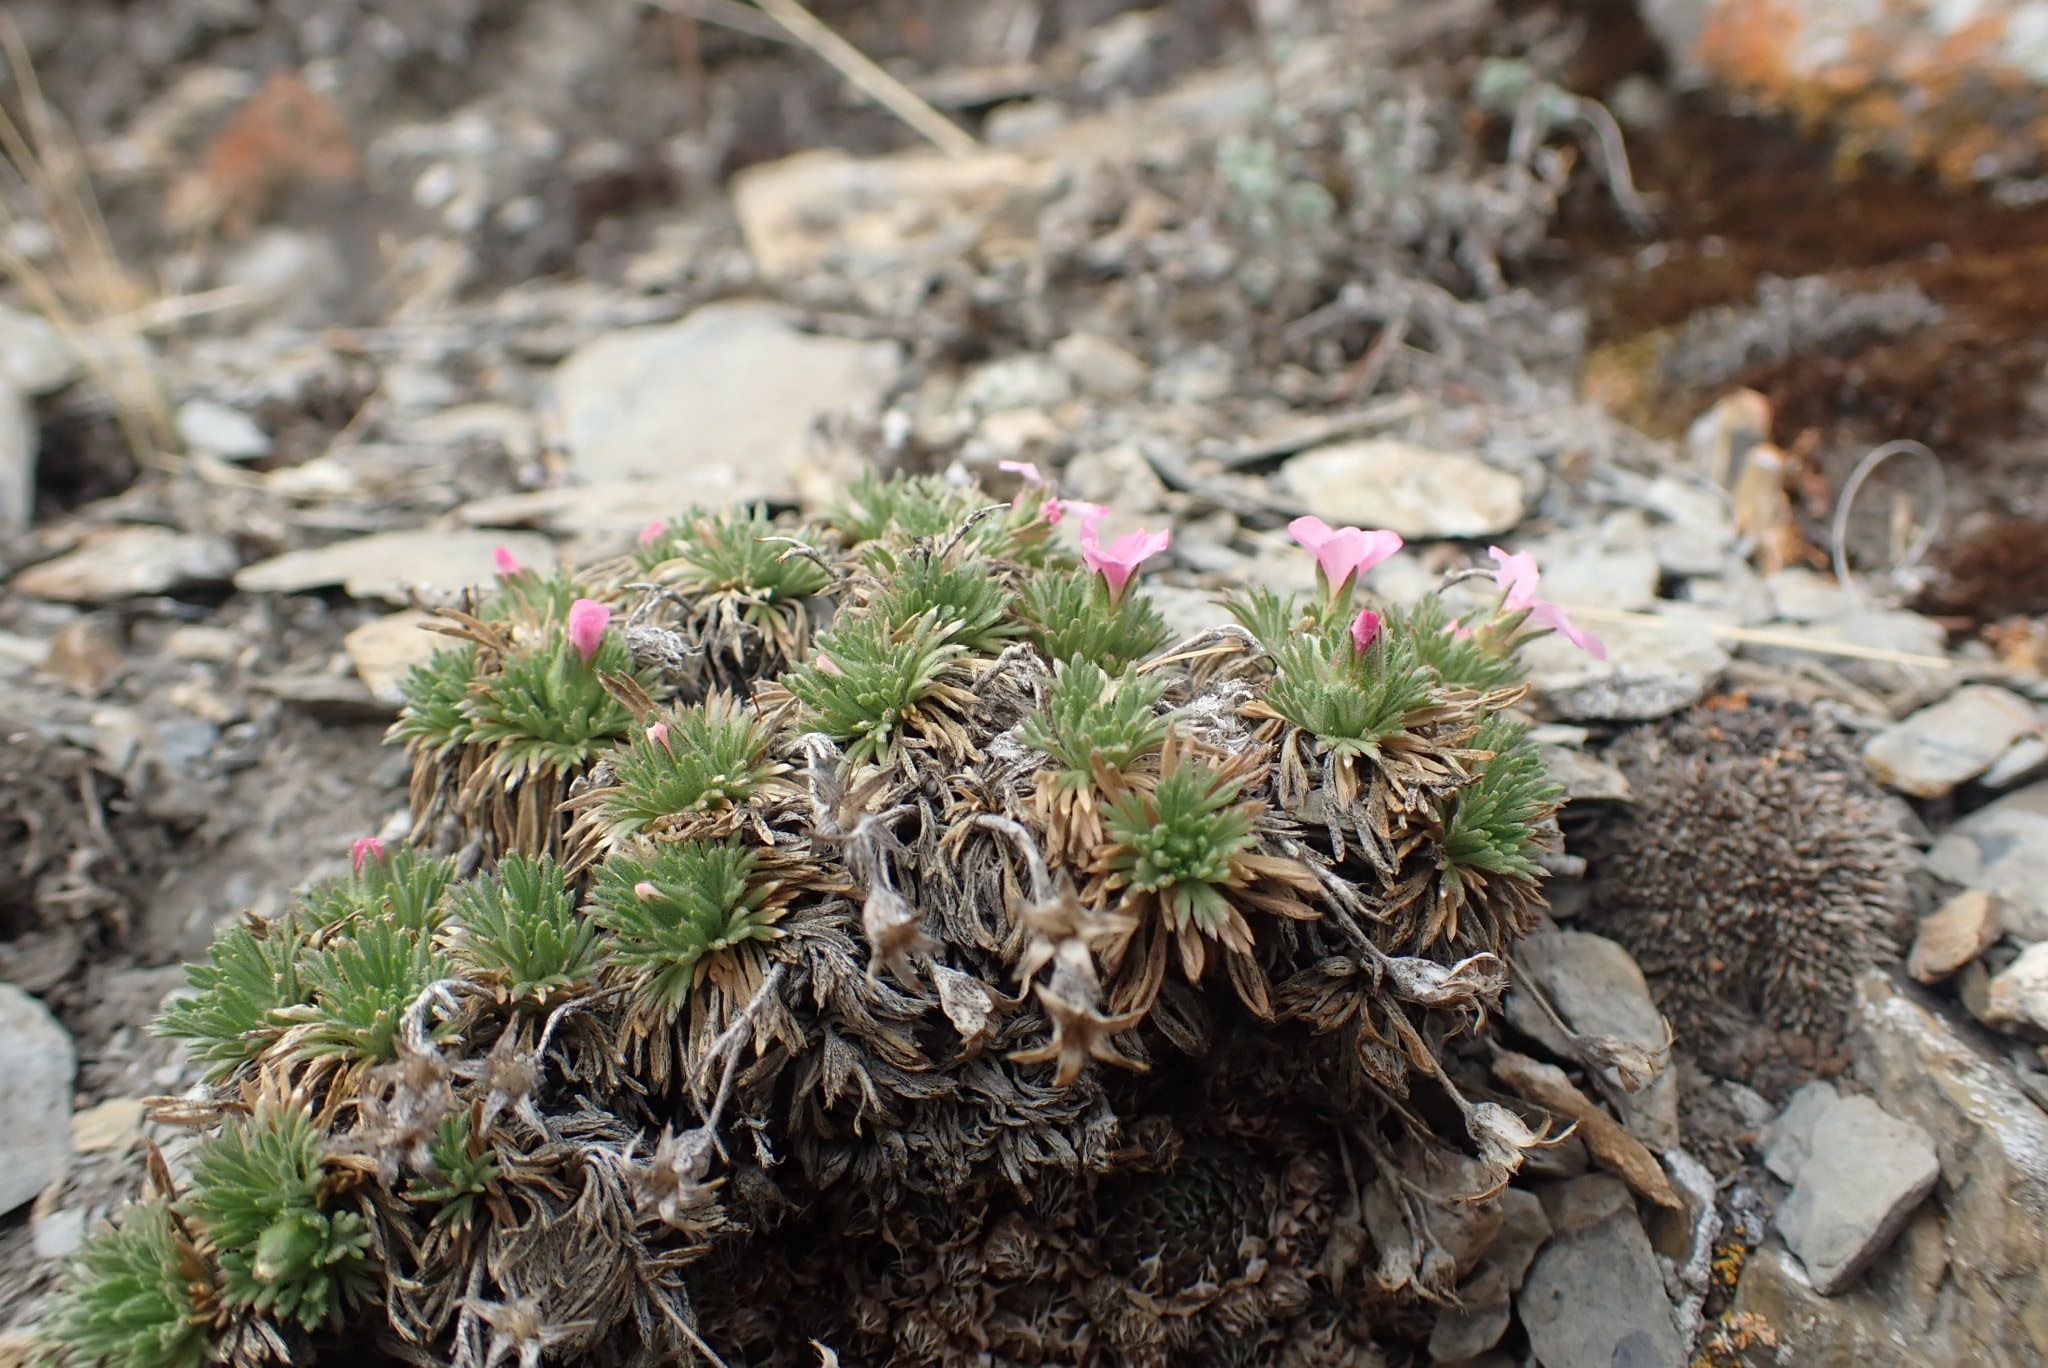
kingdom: Plantae
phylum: Tracheophyta
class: Magnoliopsida
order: Rosales
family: Rosaceae
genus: Chamaerhodos
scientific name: Chamaerhodos altaica
